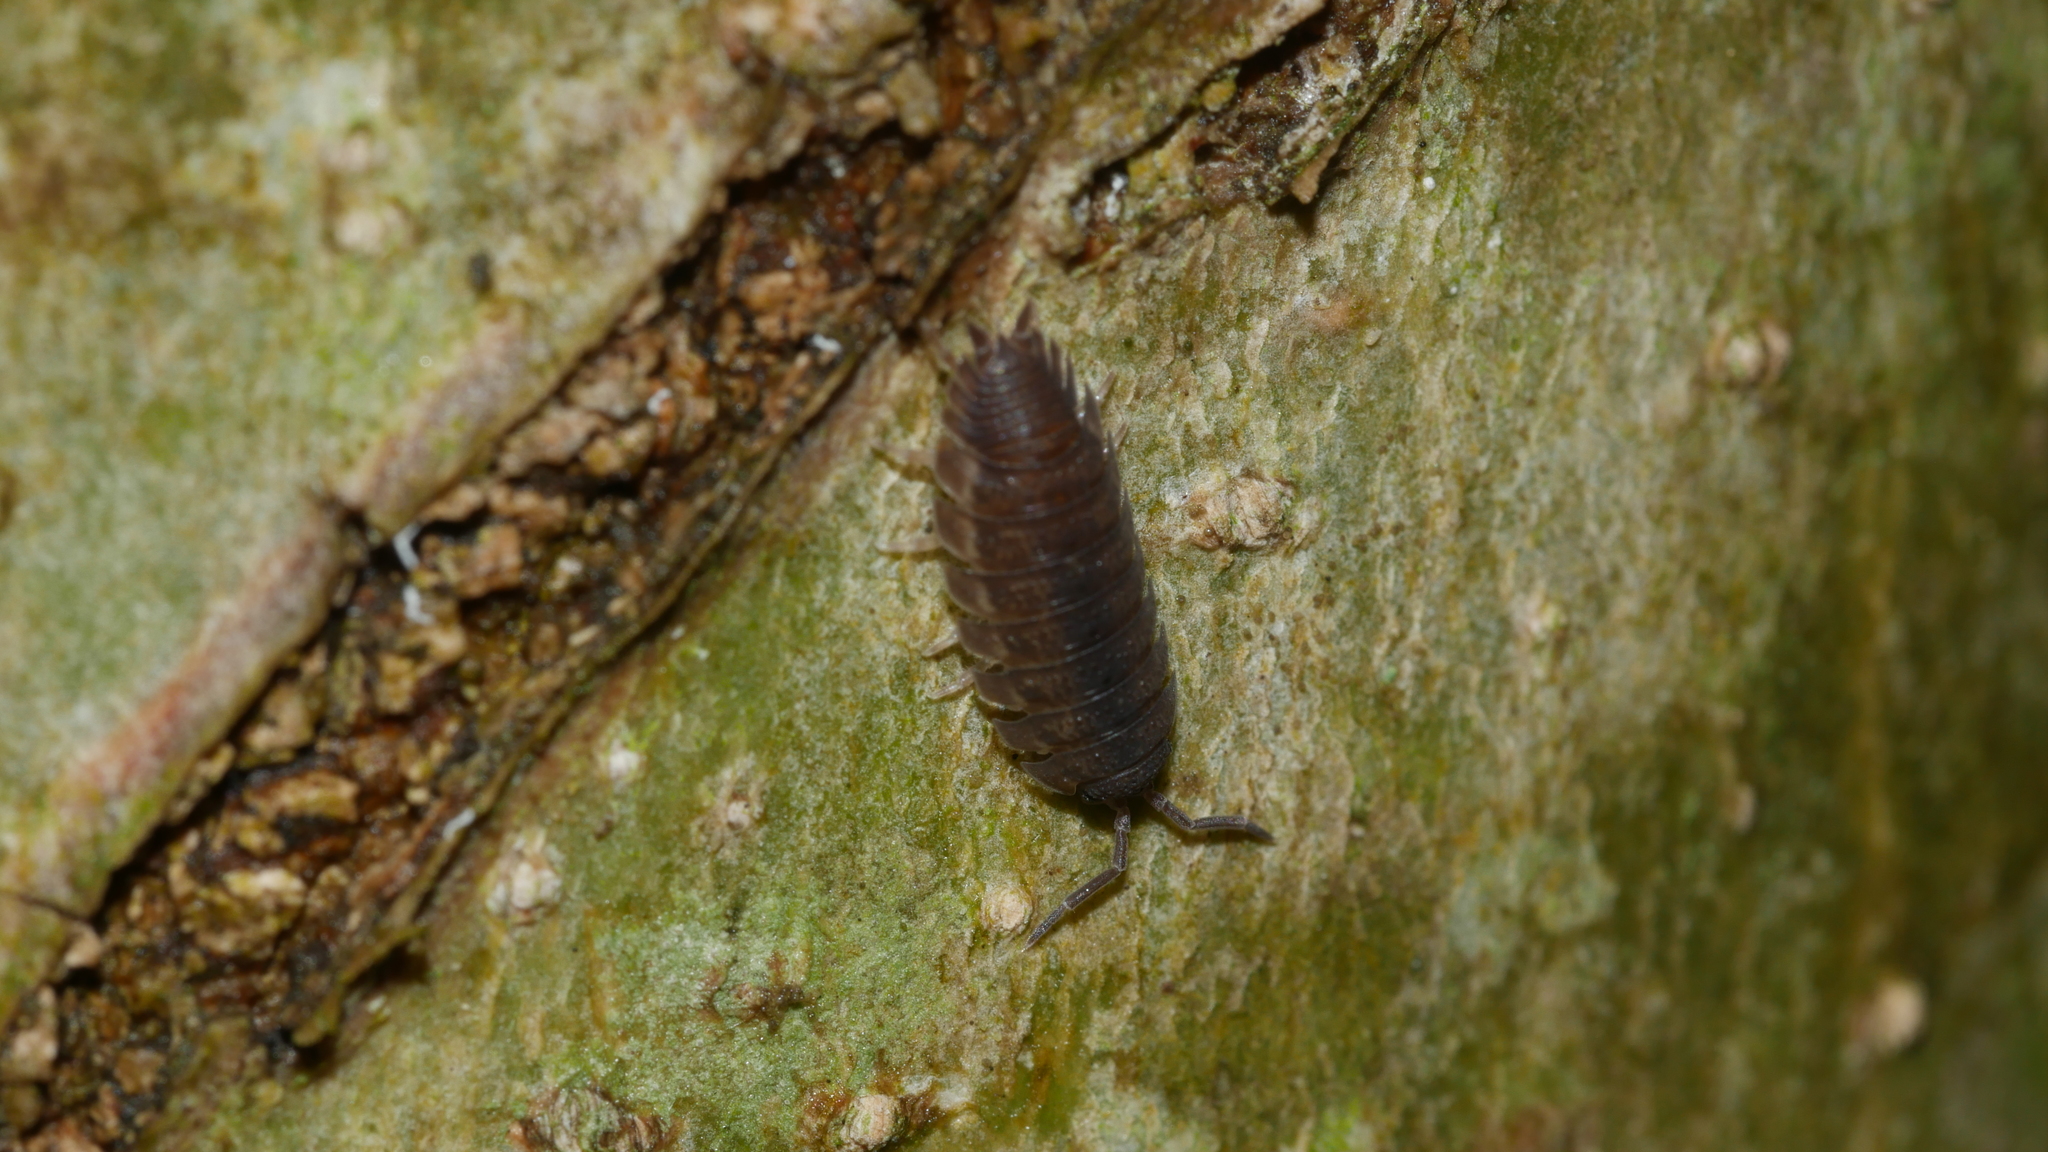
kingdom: Animalia
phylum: Arthropoda
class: Malacostraca
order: Isopoda
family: Porcellionidae
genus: Porcellio
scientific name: Porcellio scaber
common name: Common rough woodlouse
